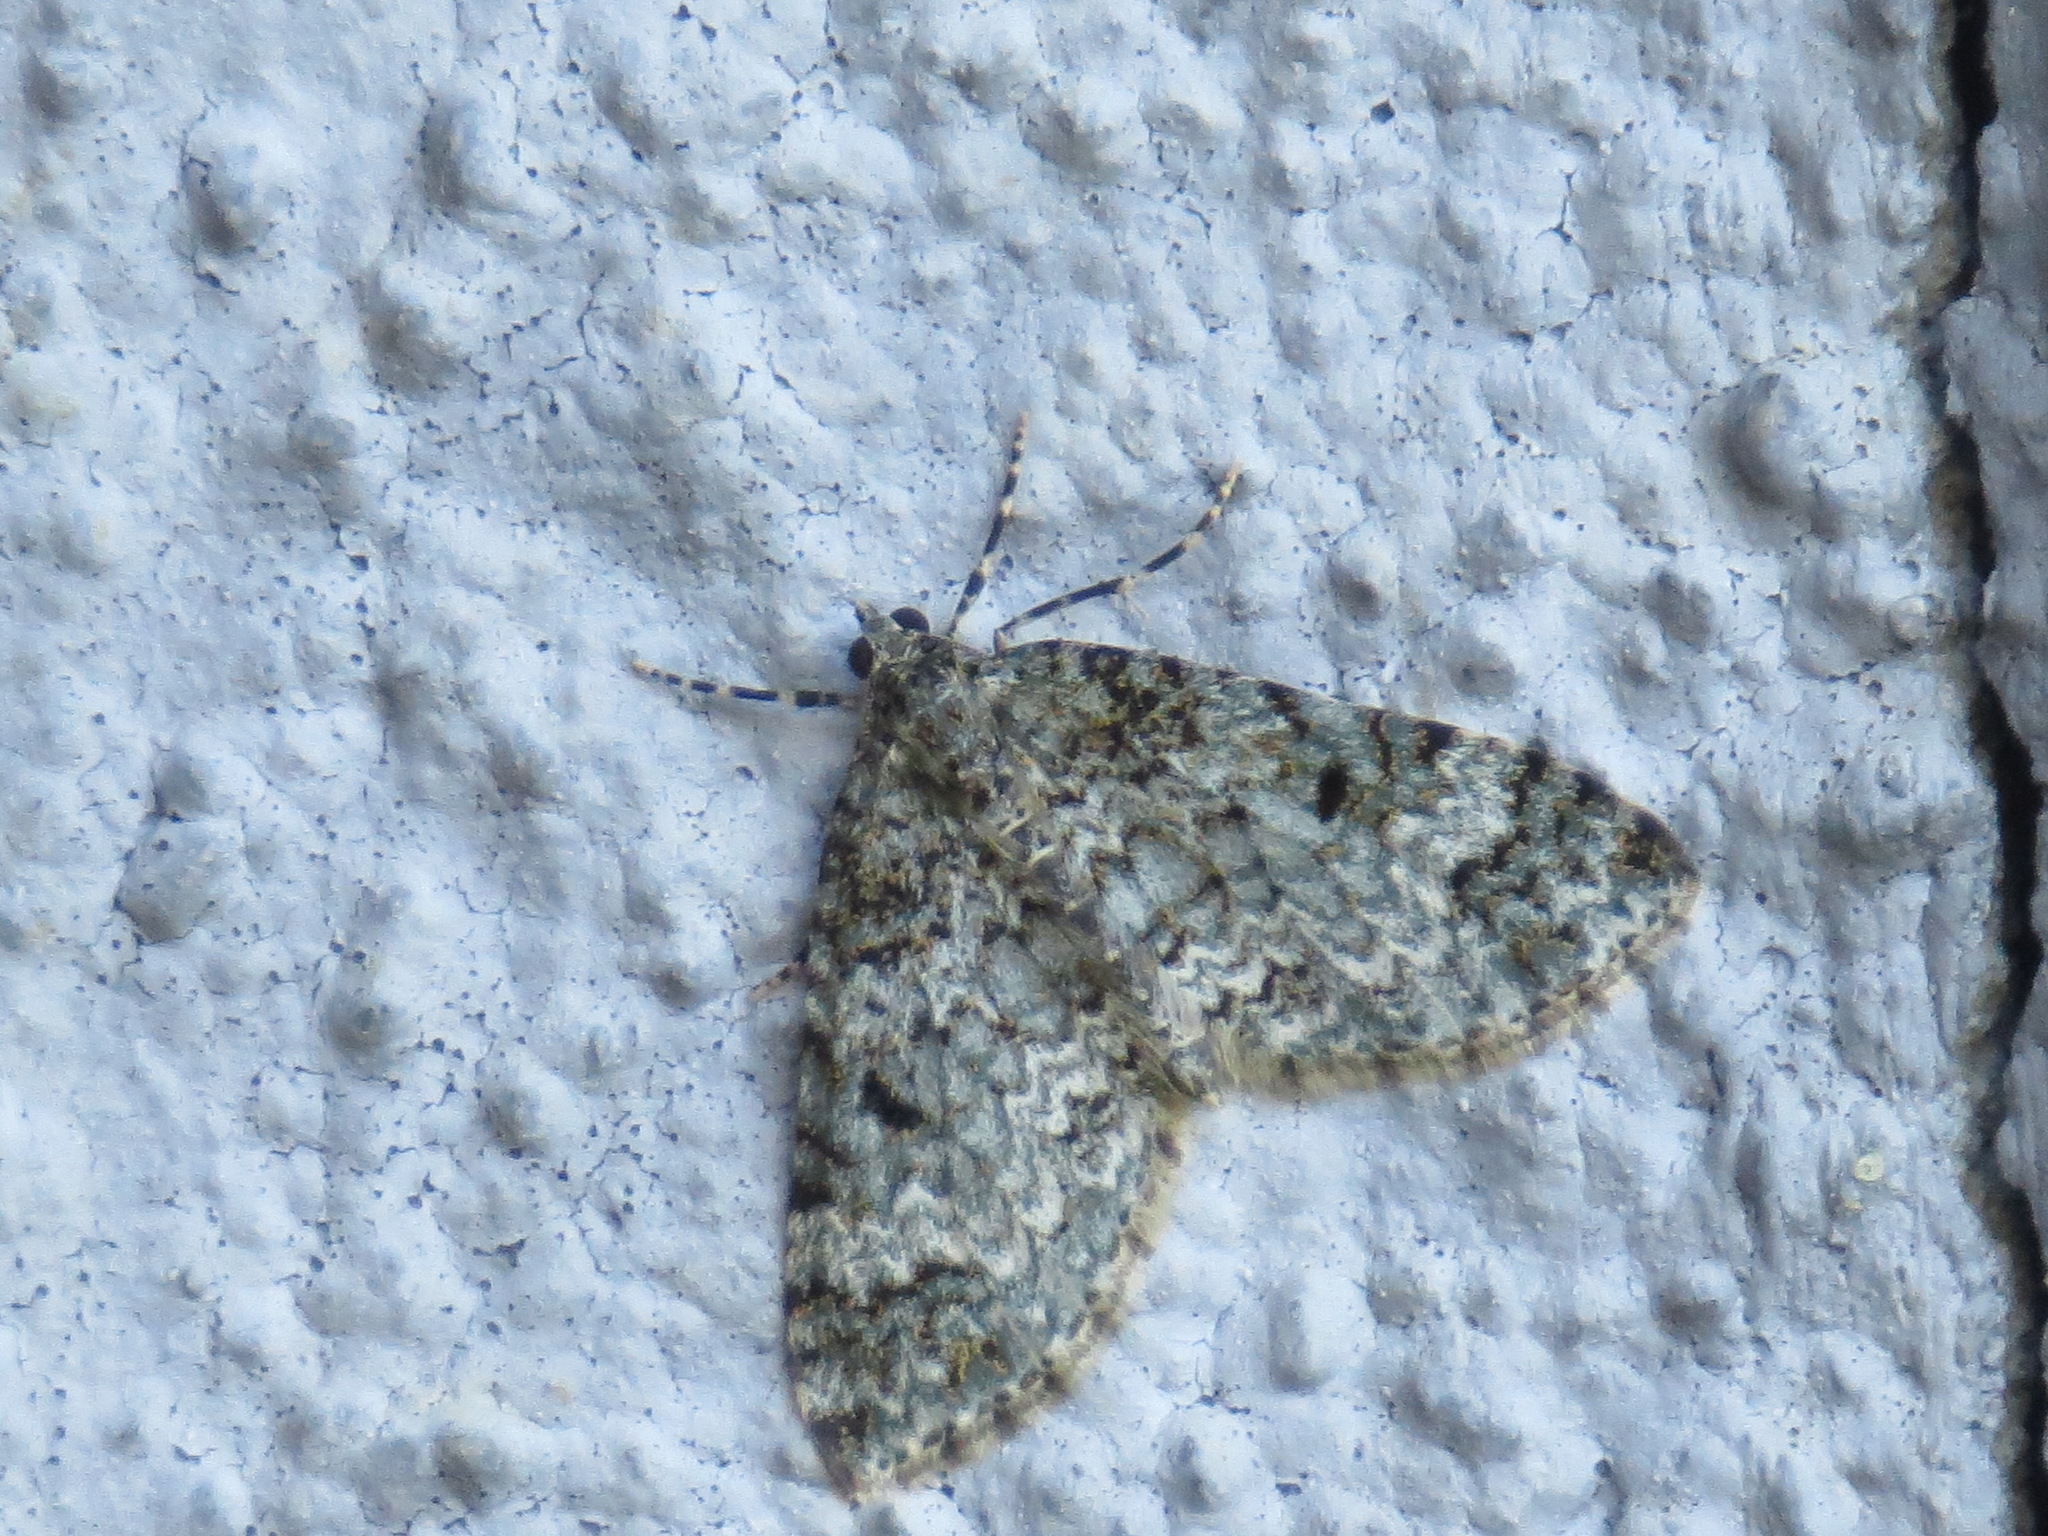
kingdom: Animalia
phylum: Arthropoda
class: Insecta
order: Lepidoptera
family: Geometridae
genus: Spargania
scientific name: Spargania magnoliata
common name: Double-banded carpet
